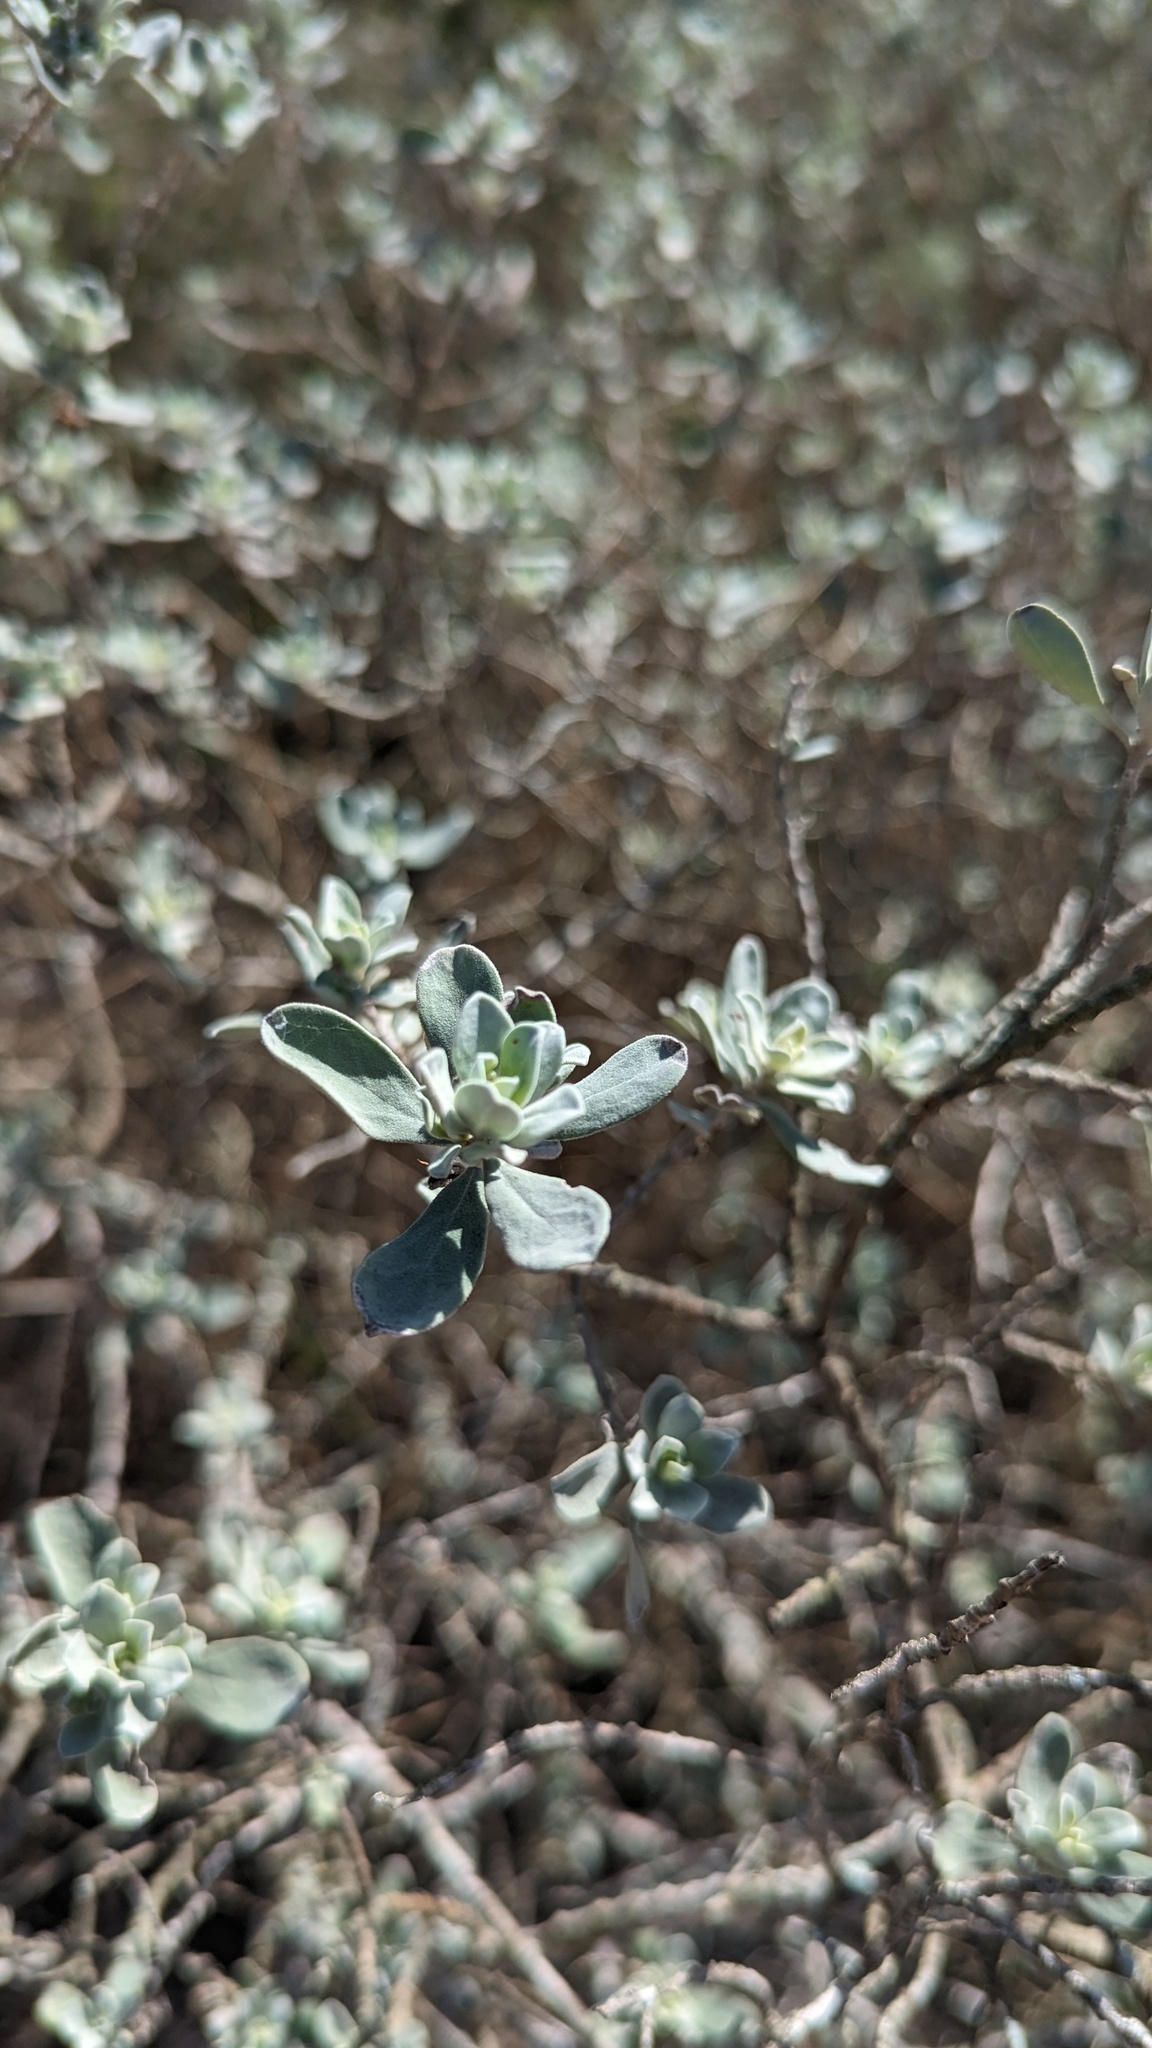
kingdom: Plantae
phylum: Tracheophyta
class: Magnoliopsida
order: Lamiales
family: Scrophulariaceae
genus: Leucophyllum
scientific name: Leucophyllum frutescens
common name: Texas silverleaf
